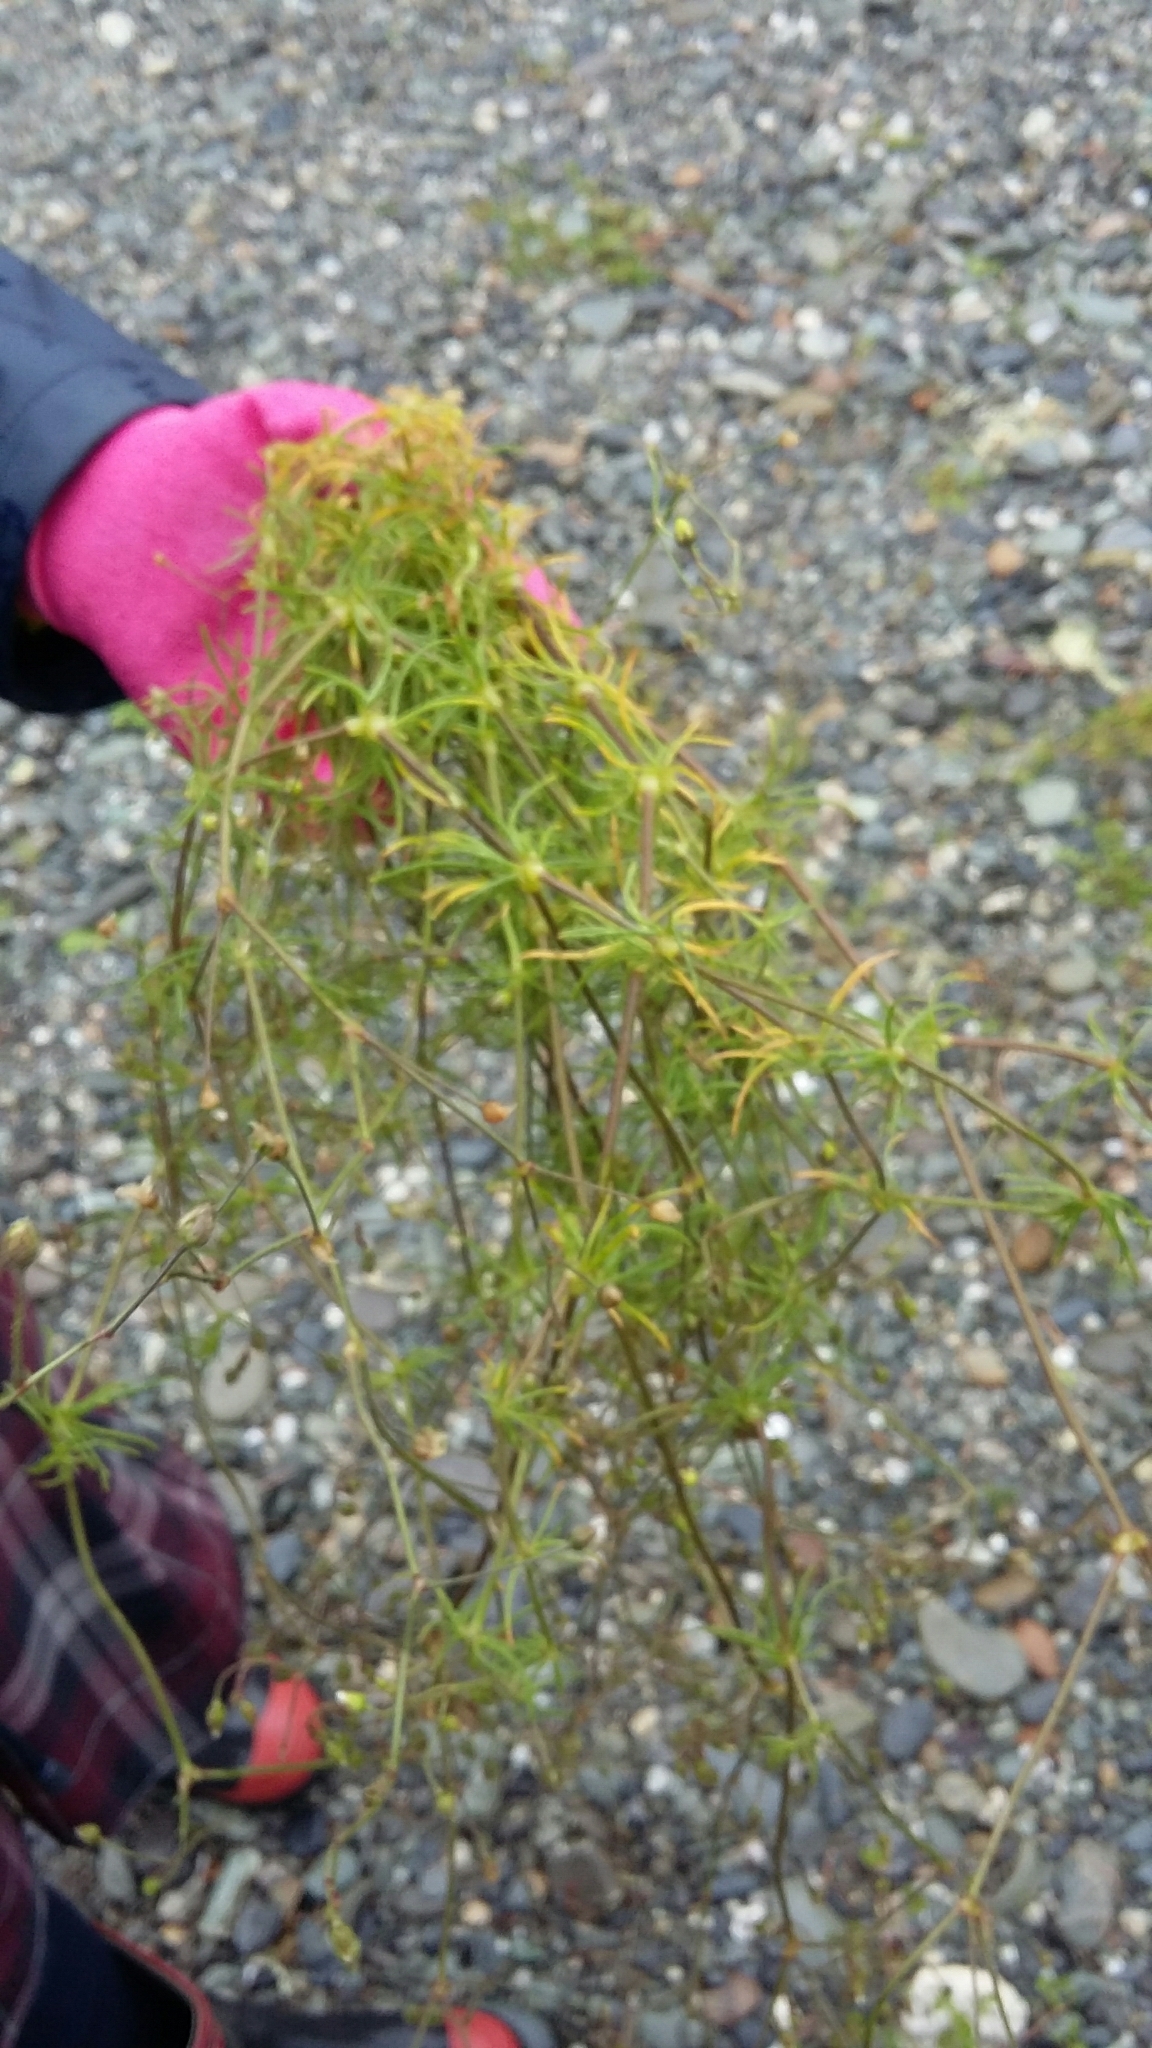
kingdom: Plantae
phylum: Tracheophyta
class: Magnoliopsida
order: Caryophyllales
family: Caryophyllaceae
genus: Spergula
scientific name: Spergula arvensis
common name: Corn spurrey
